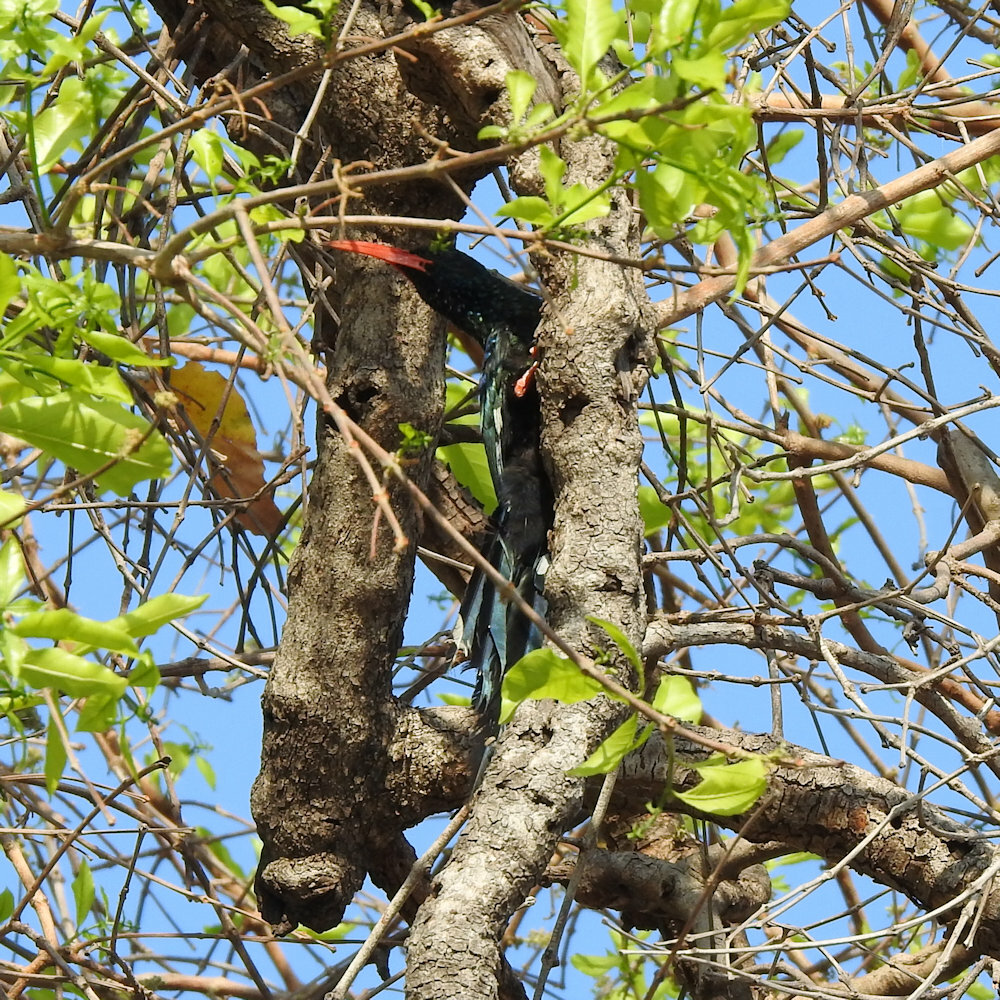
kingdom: Animalia
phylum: Chordata
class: Aves
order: Bucerotiformes
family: Phoeniculidae
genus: Phoeniculus
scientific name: Phoeniculus purpureus
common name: Green woodhoopoe
